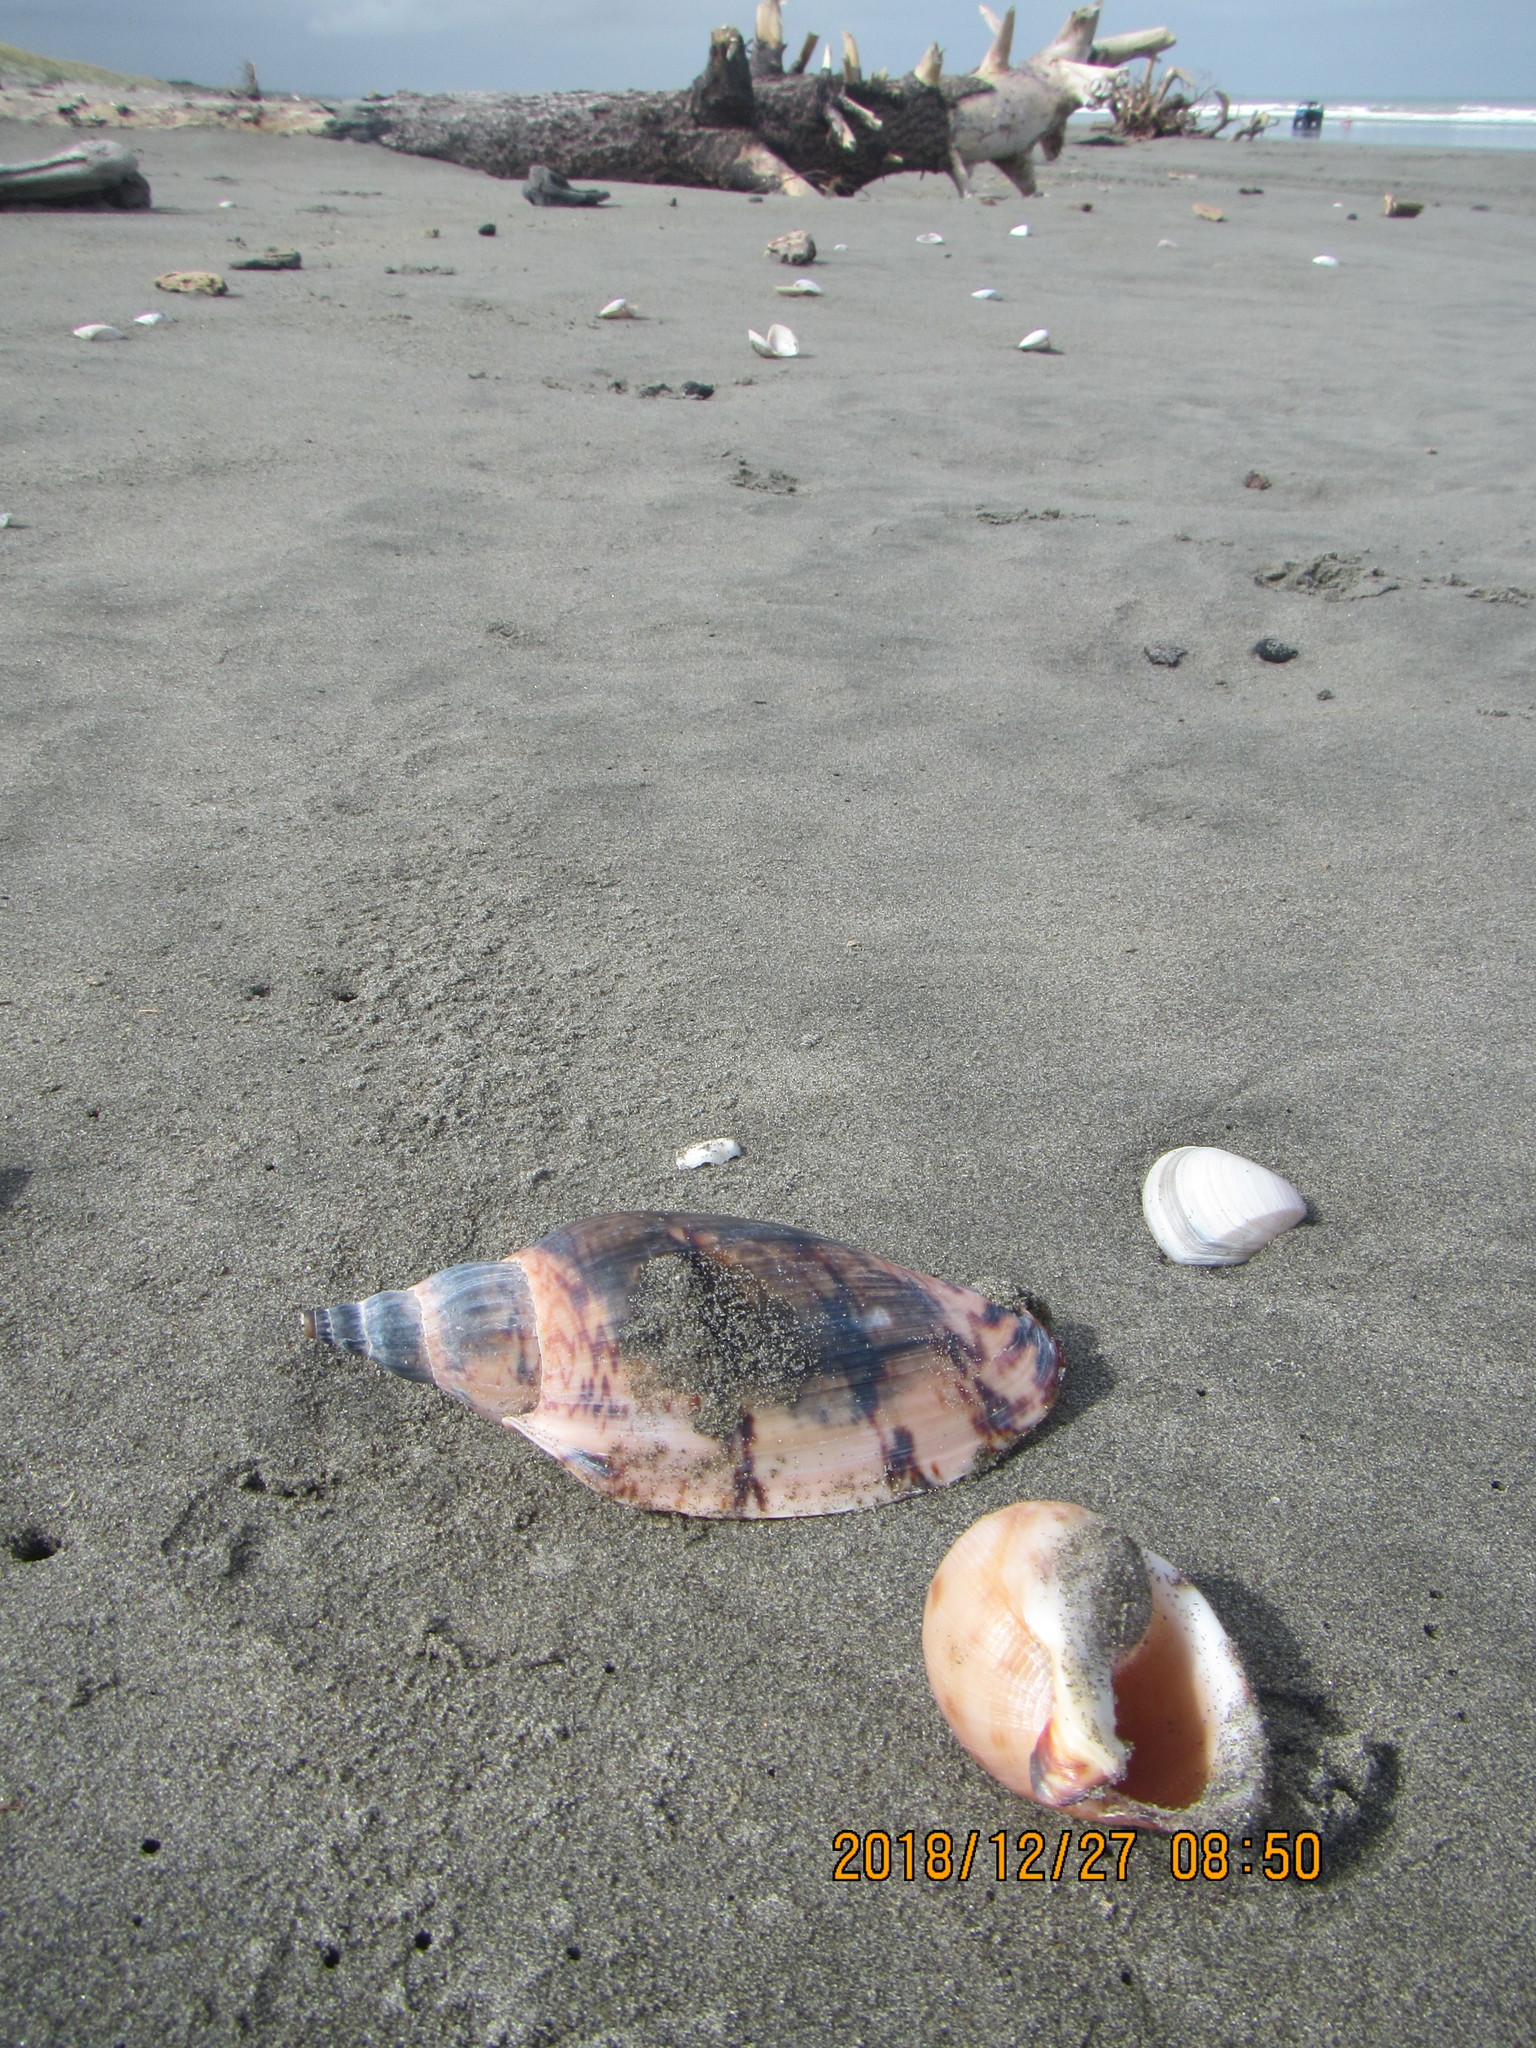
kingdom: Animalia
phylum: Mollusca
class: Gastropoda
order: Littorinimorpha
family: Cassidae
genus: Semicassis
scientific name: Semicassis pyrum
